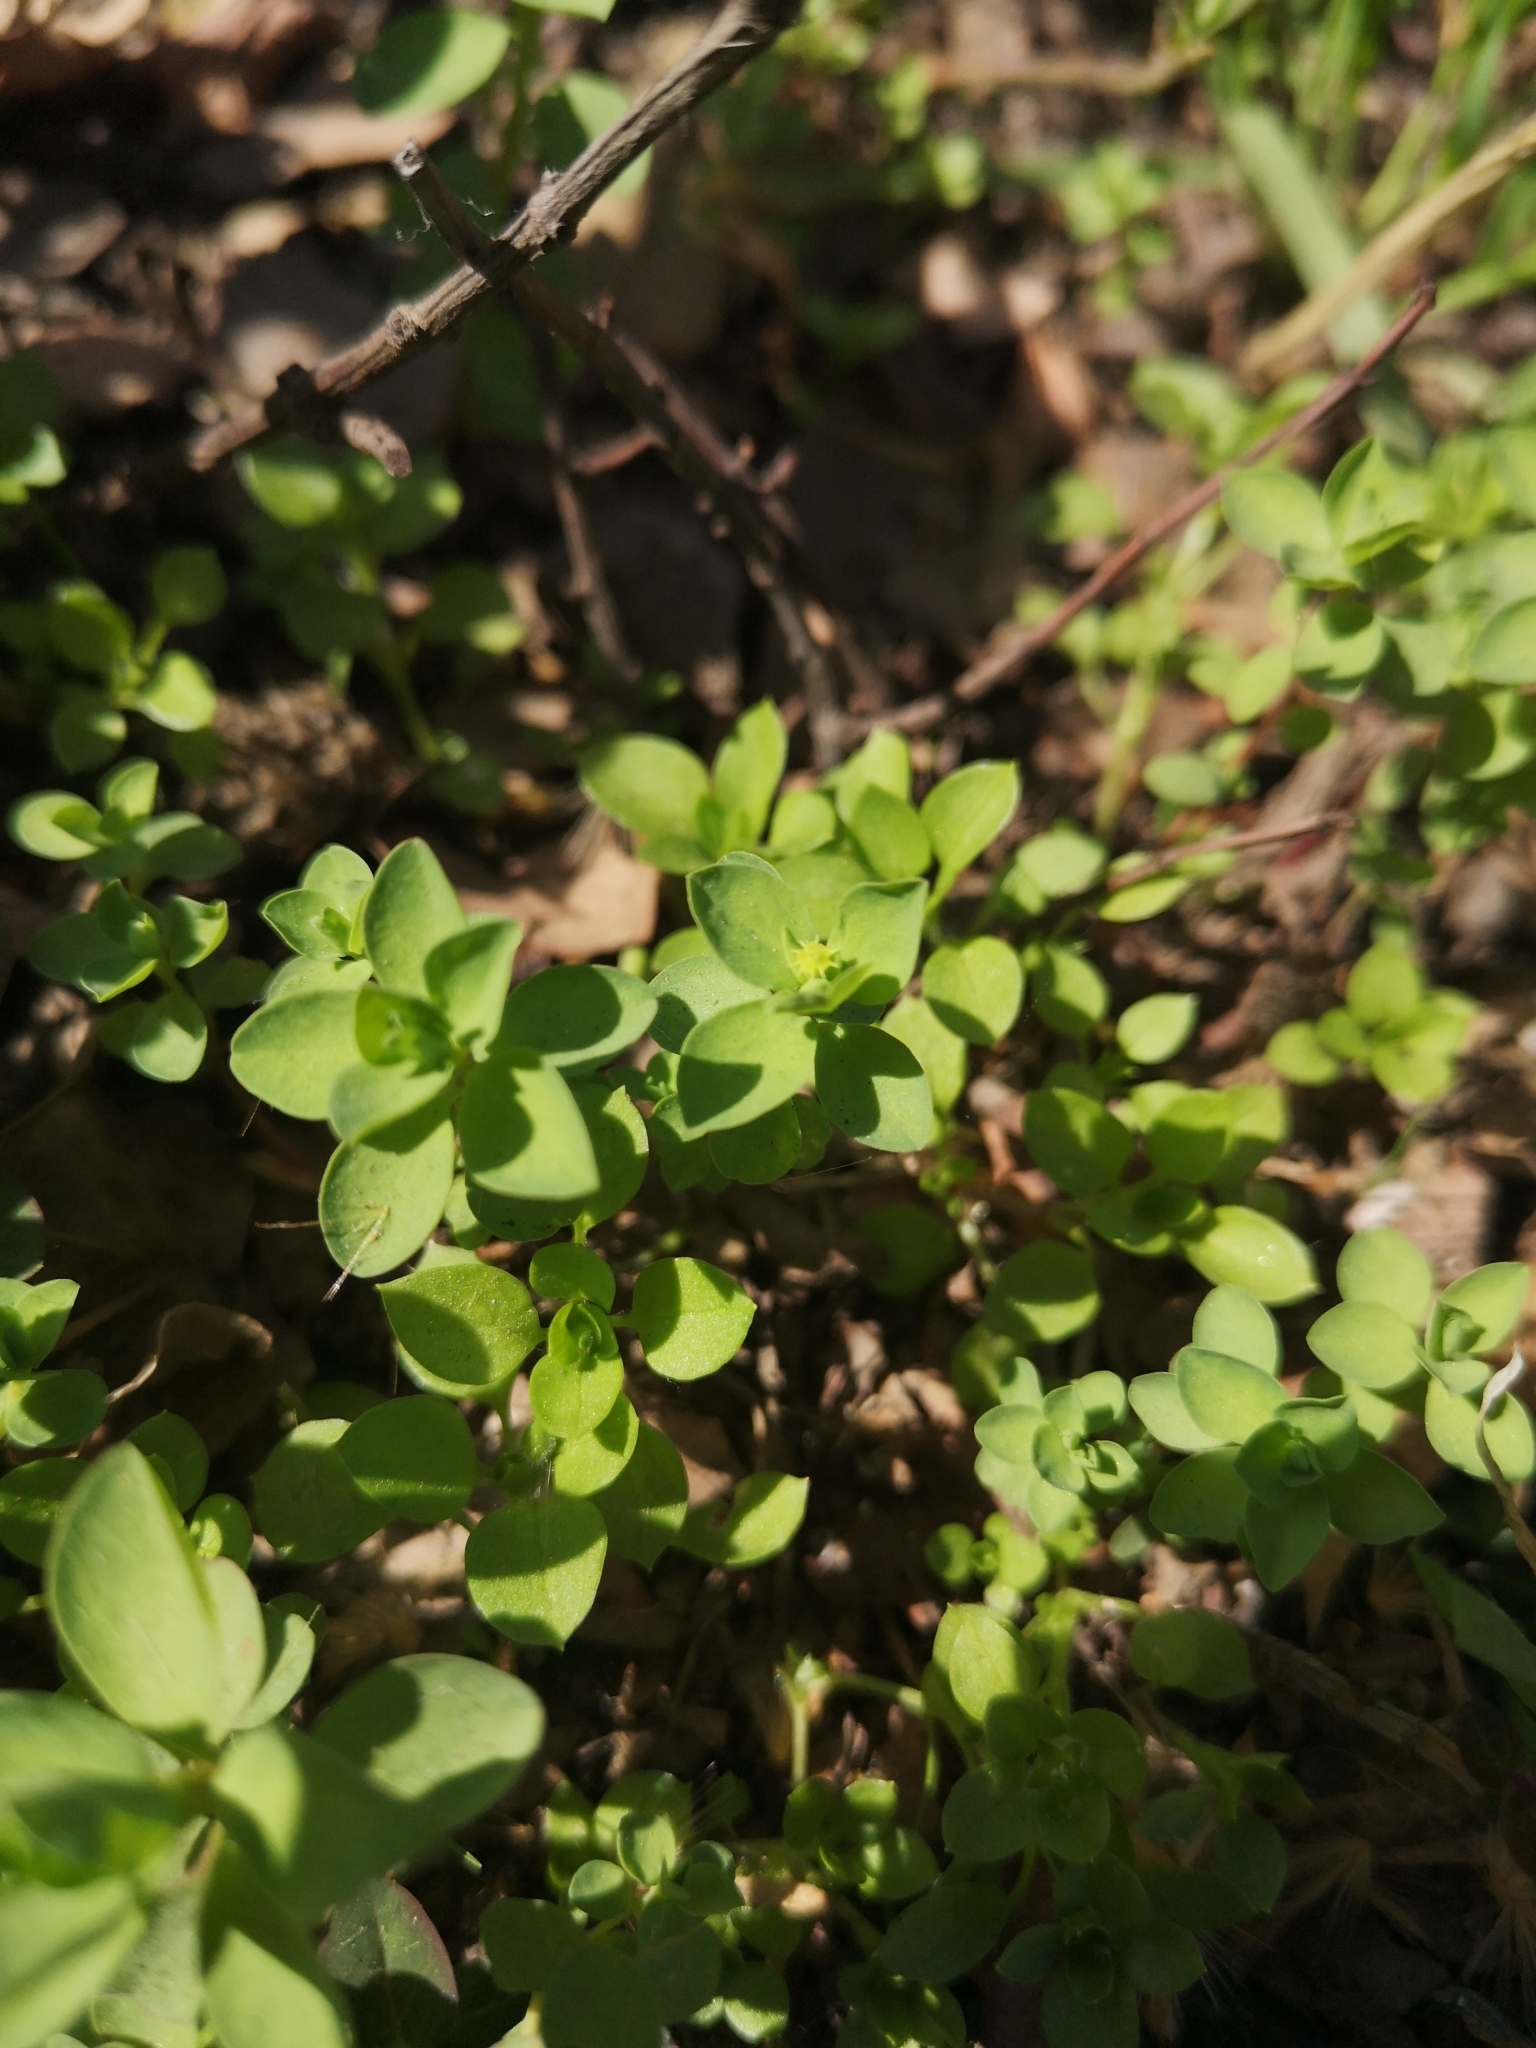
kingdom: Plantae
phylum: Tracheophyta
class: Magnoliopsida
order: Malpighiales
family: Euphorbiaceae
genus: Euphorbia
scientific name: Euphorbia peplus
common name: Petty spurge
